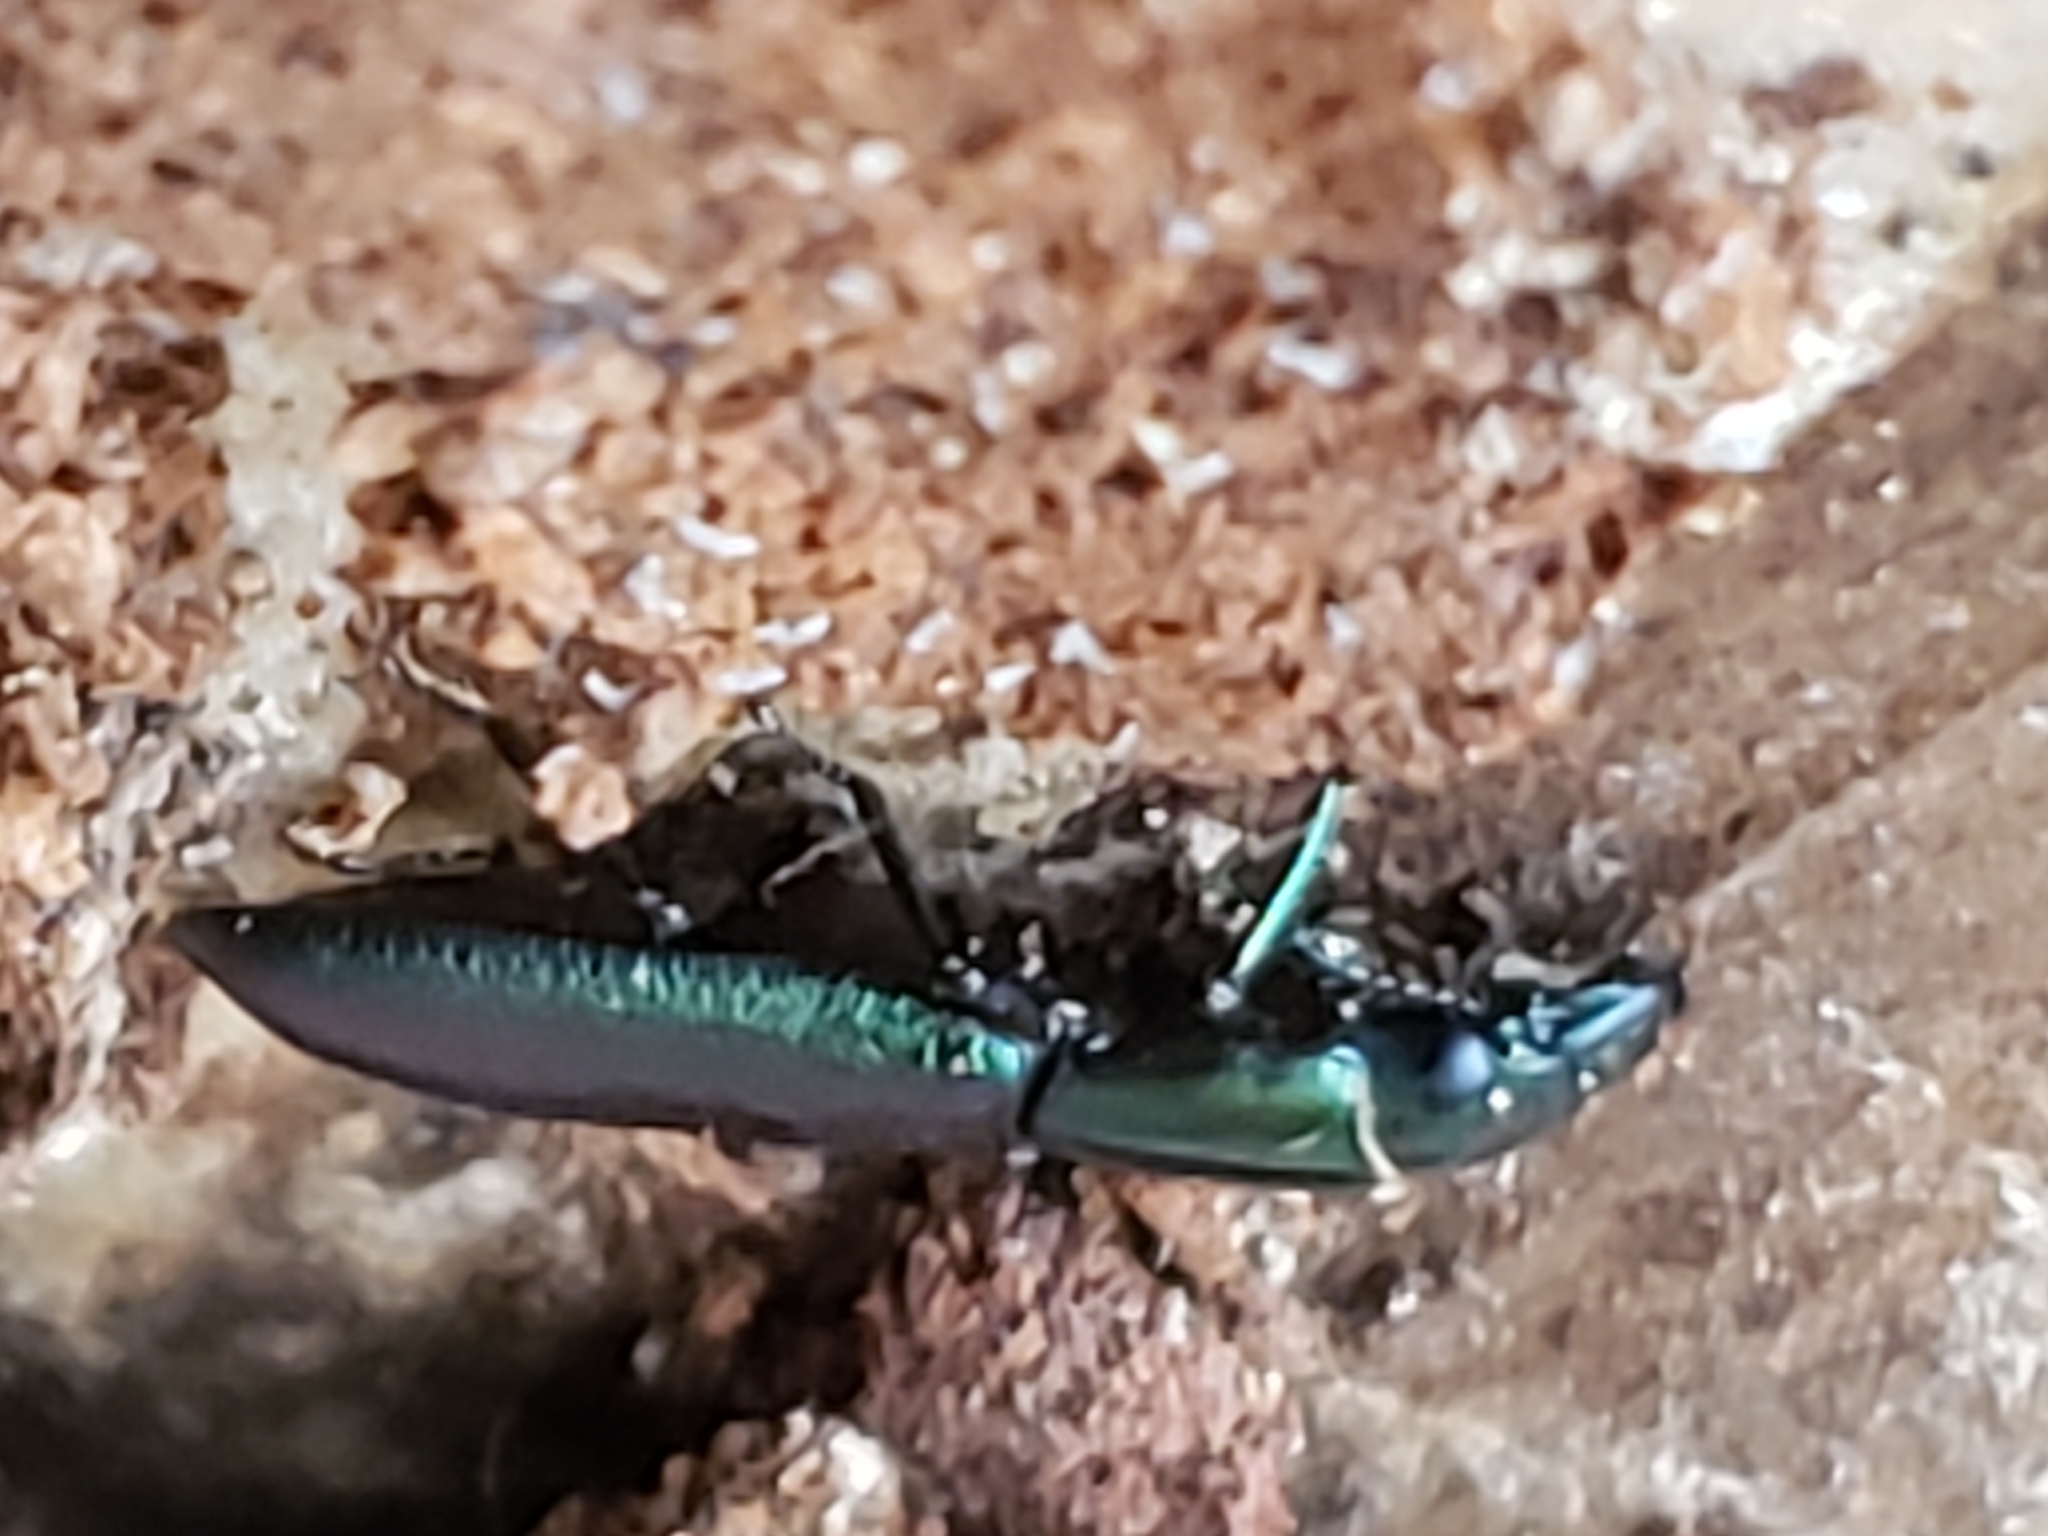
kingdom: Animalia
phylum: Arthropoda
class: Insecta
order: Coleoptera
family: Trogossitidae
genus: Temnochila
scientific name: Temnochila virescens
